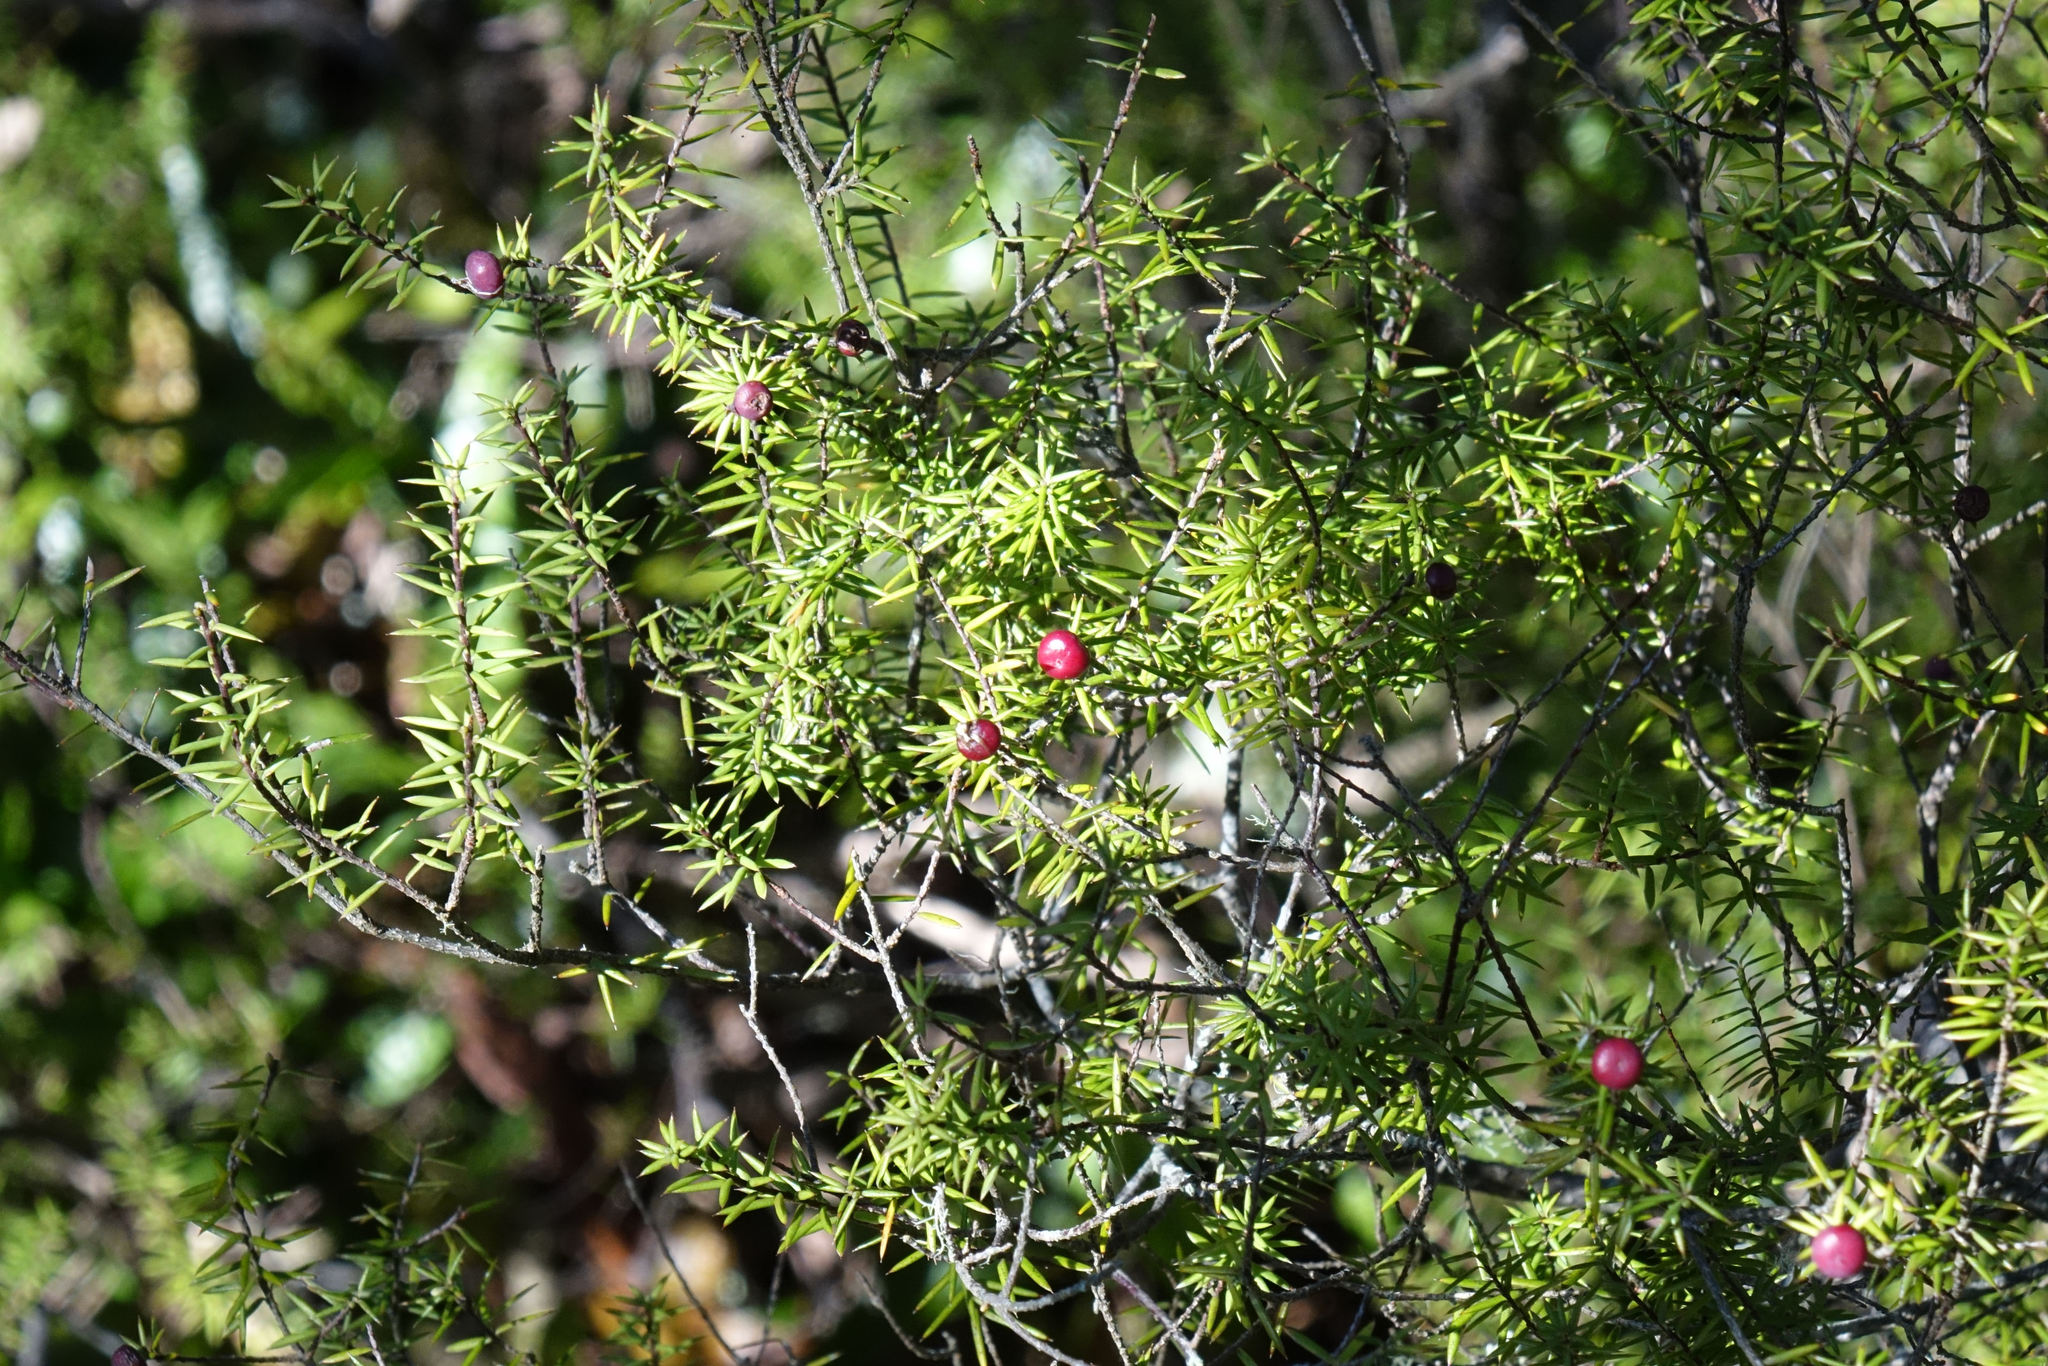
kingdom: Plantae
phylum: Tracheophyta
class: Magnoliopsida
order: Ericales
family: Ericaceae
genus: Leptecophylla
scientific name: Leptecophylla juniperina
